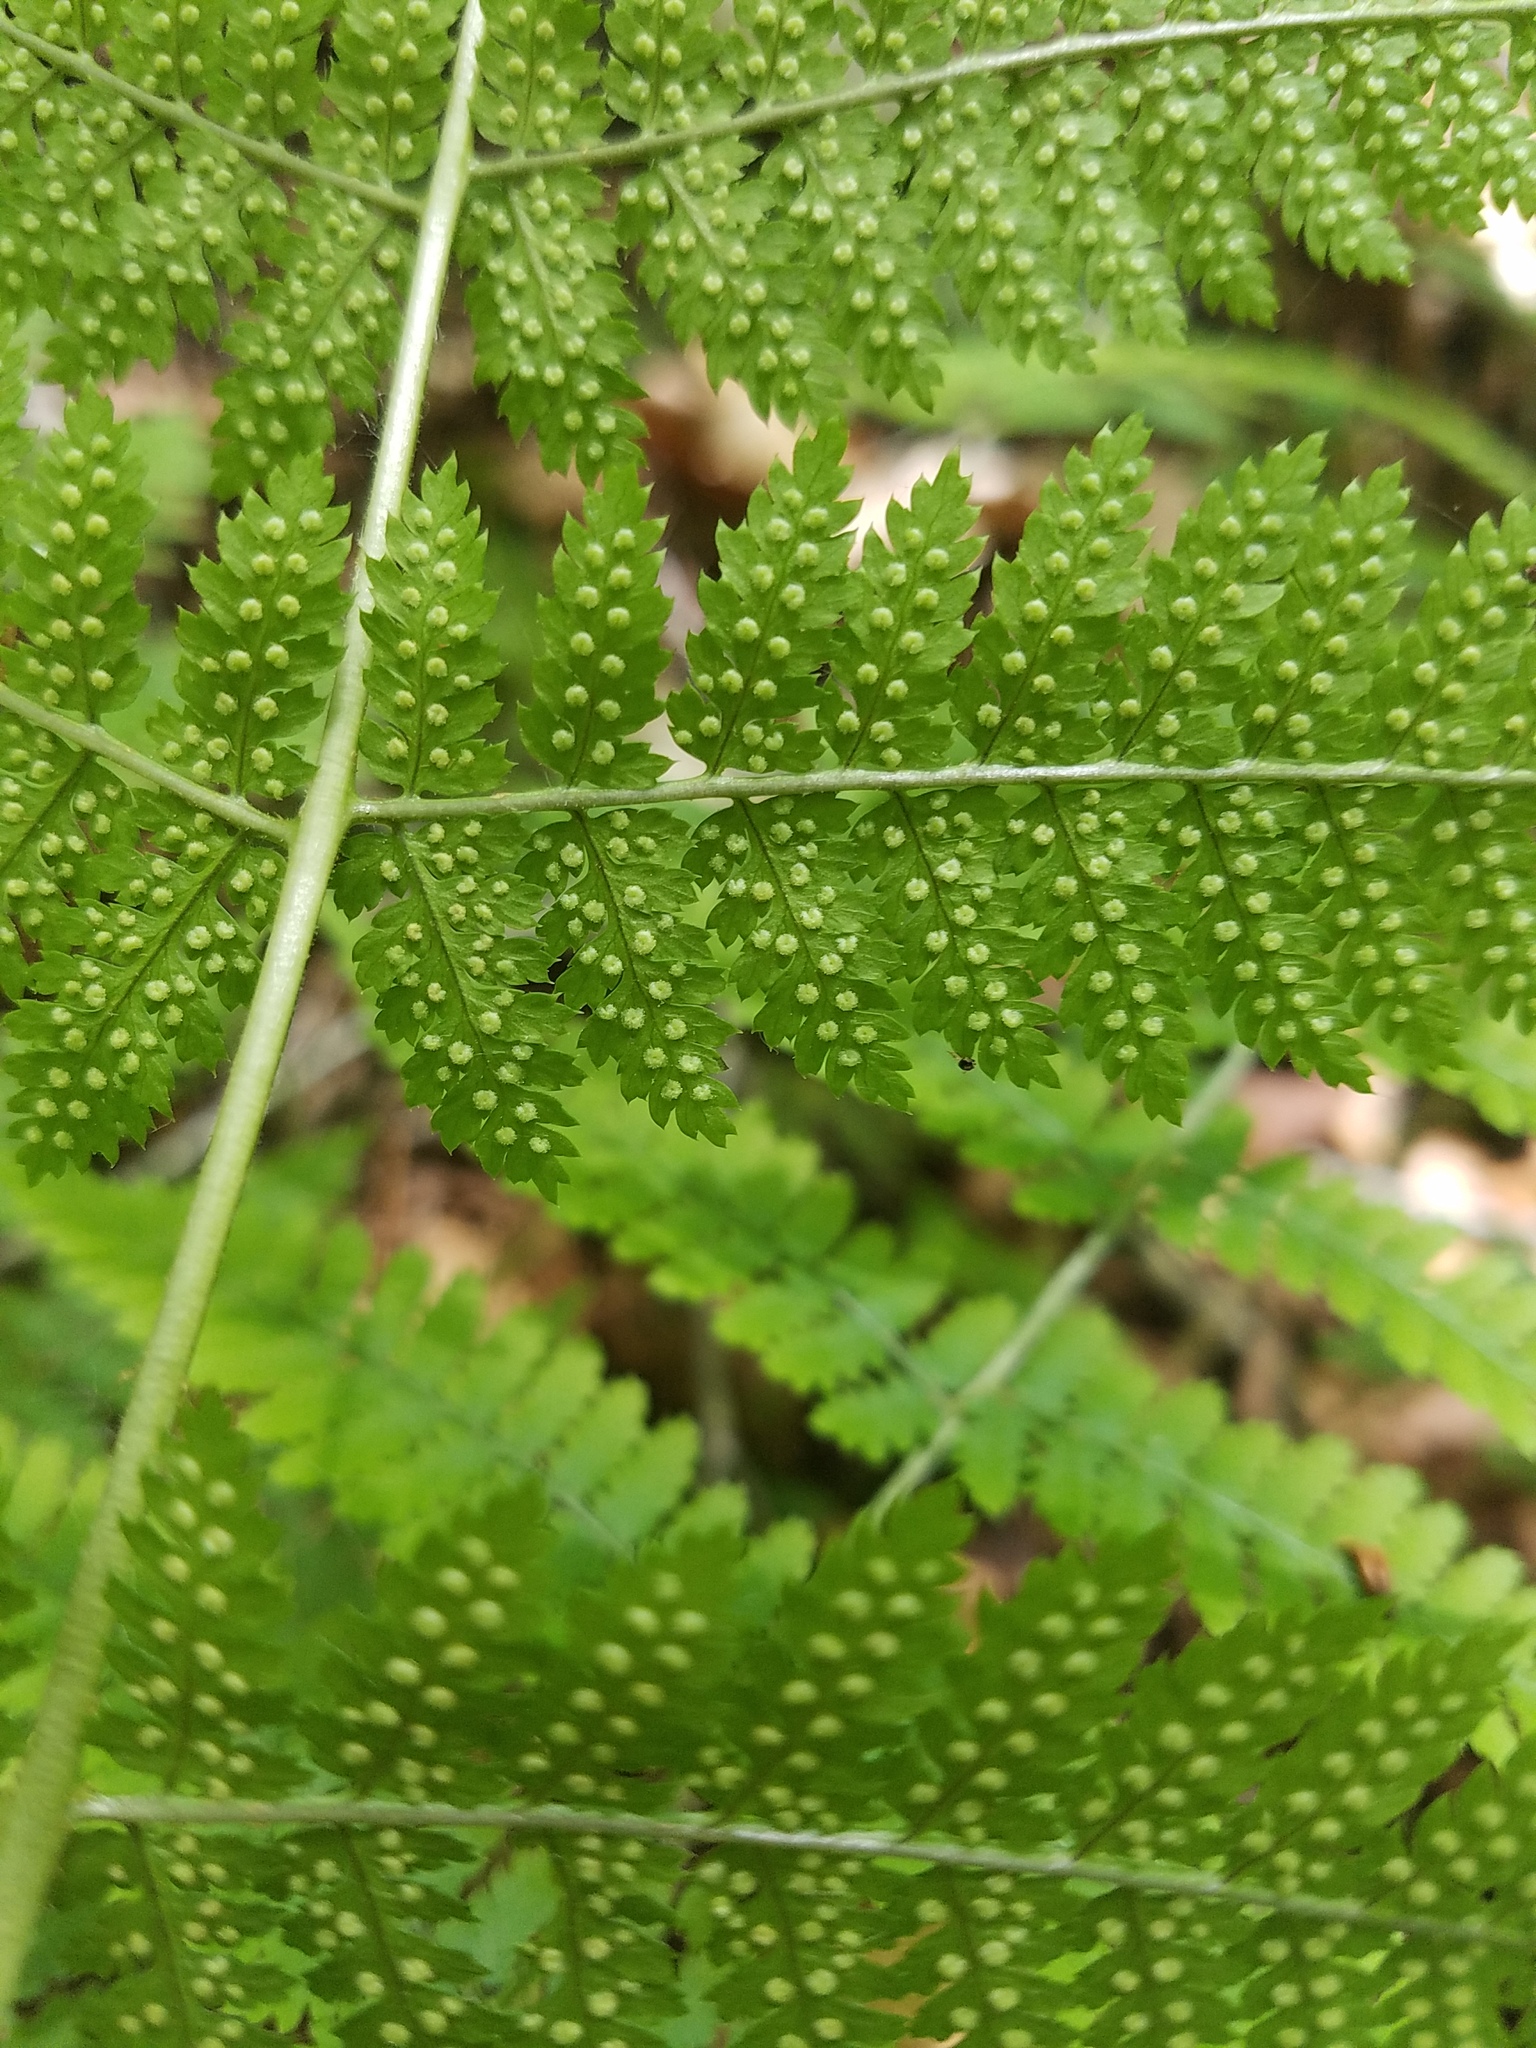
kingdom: Plantae
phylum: Tracheophyta
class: Polypodiopsida
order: Polypodiales
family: Dryopteridaceae
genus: Dryopteris
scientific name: Dryopteris intermedia
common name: Evergreen wood fern
